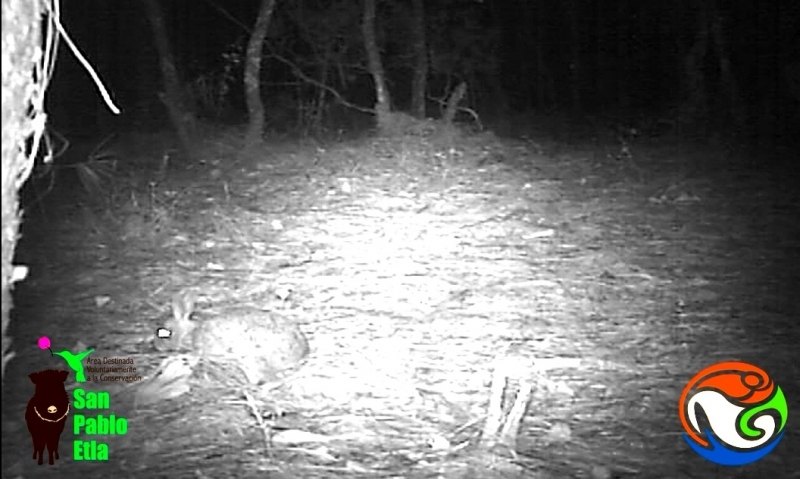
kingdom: Animalia
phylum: Chordata
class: Mammalia
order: Lagomorpha
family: Leporidae
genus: Sylvilagus
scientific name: Sylvilagus floridanus
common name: Eastern cottontail
